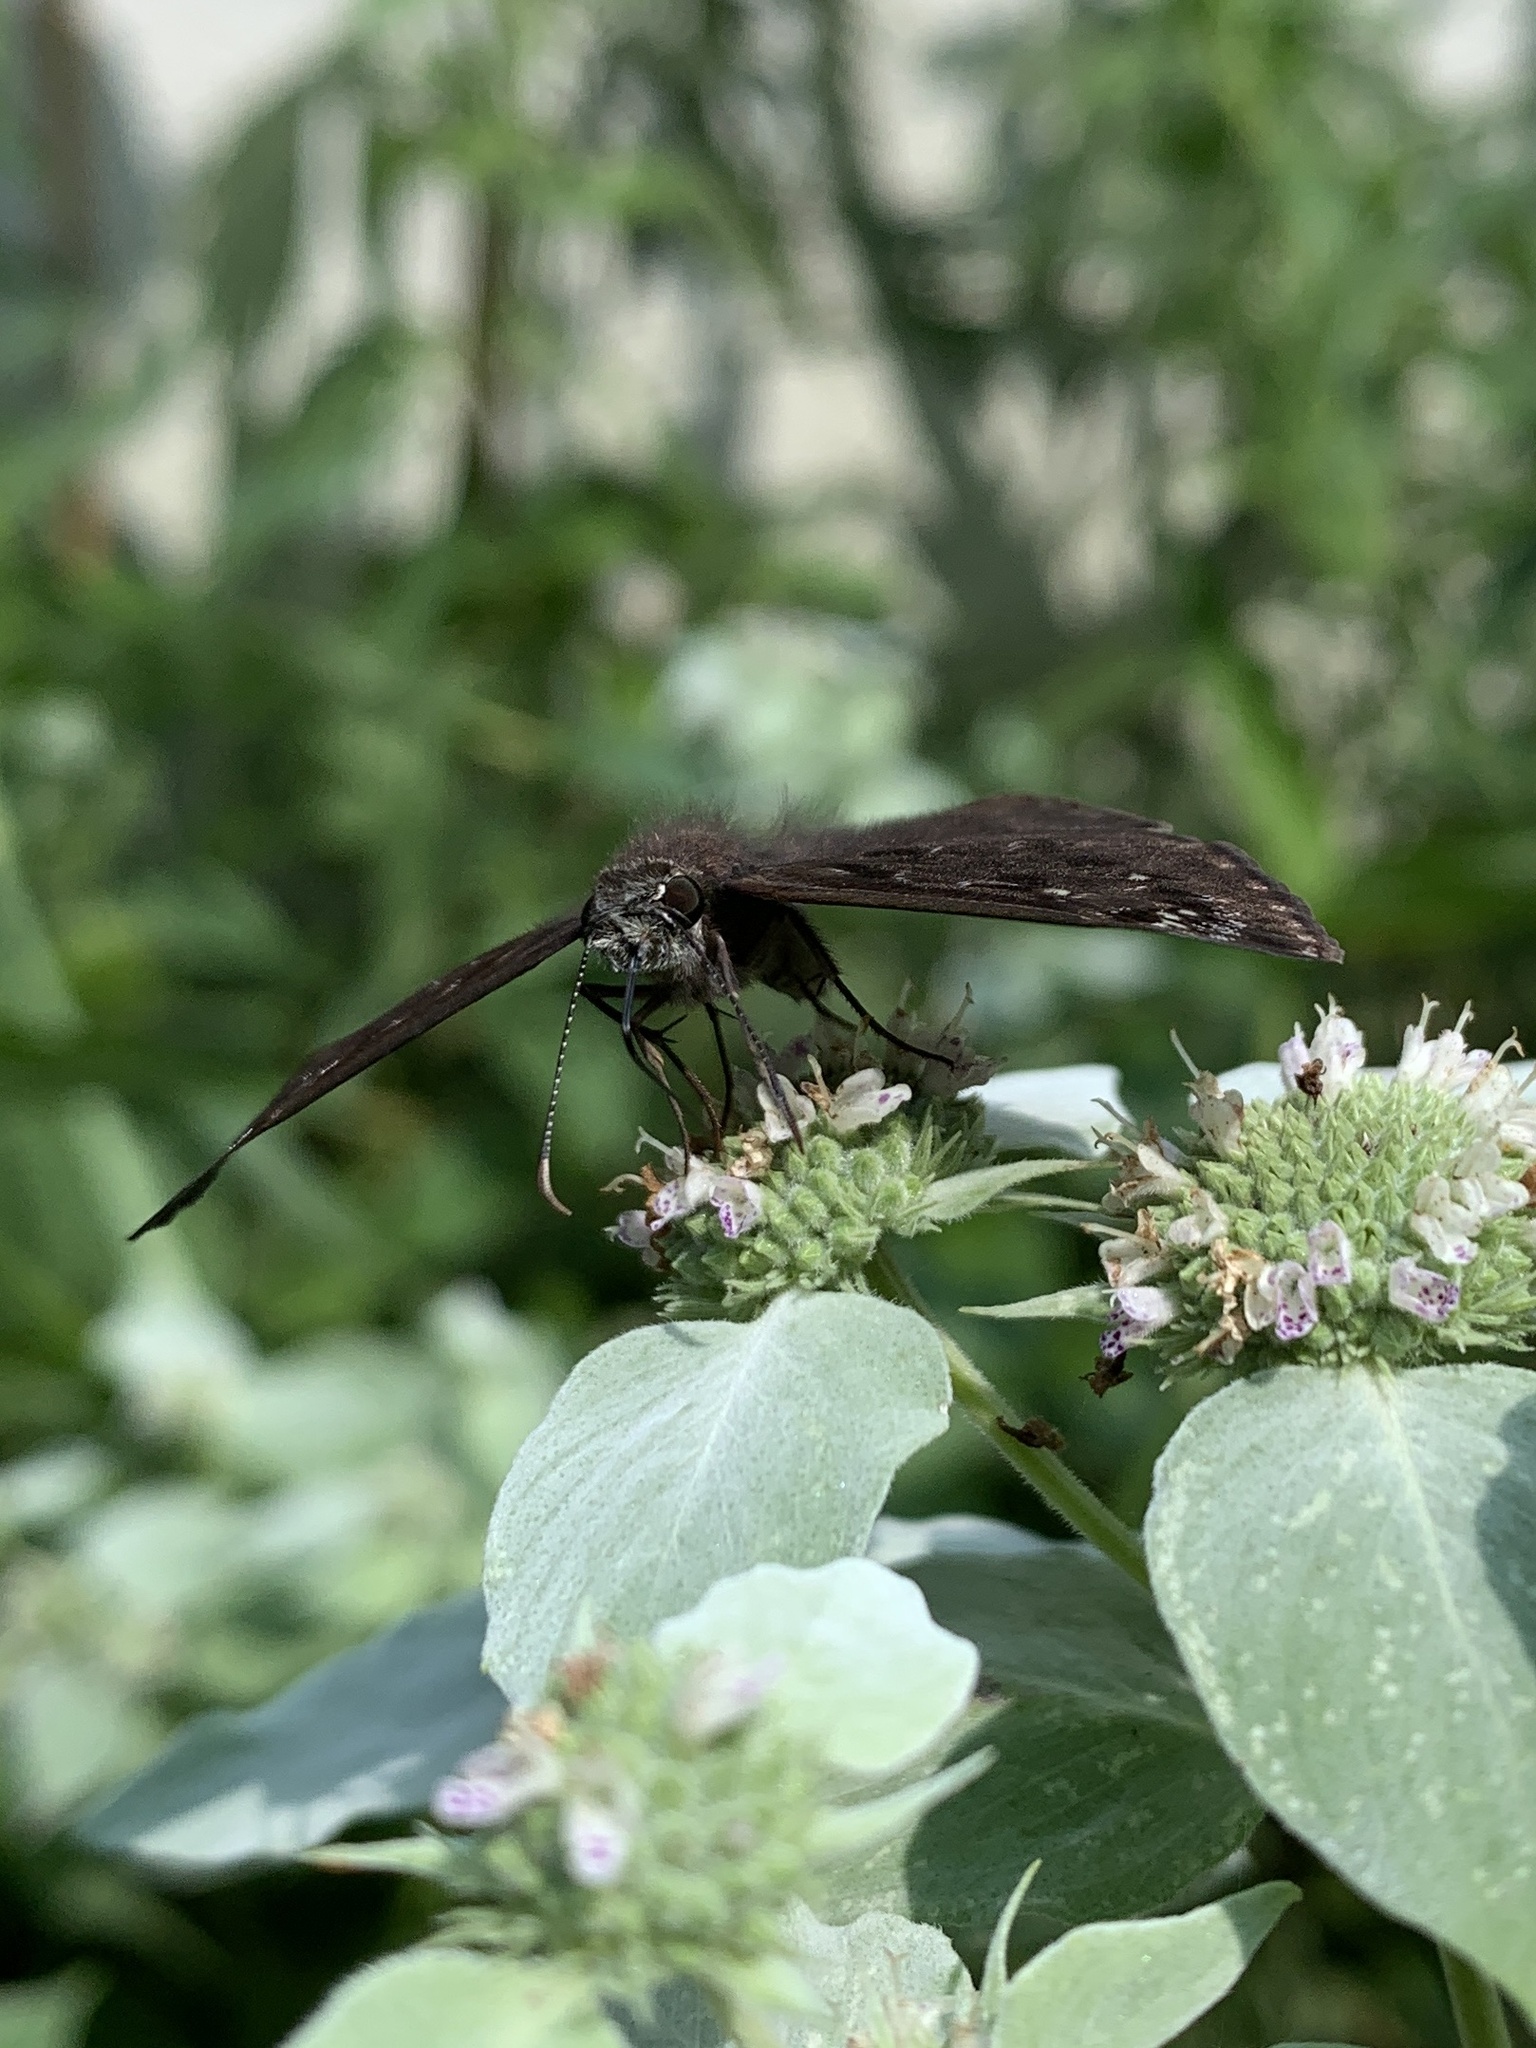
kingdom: Animalia
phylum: Arthropoda
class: Insecta
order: Lepidoptera
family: Hesperiidae
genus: Erynnis
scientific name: Erynnis horatius
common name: Horace's duskywing
